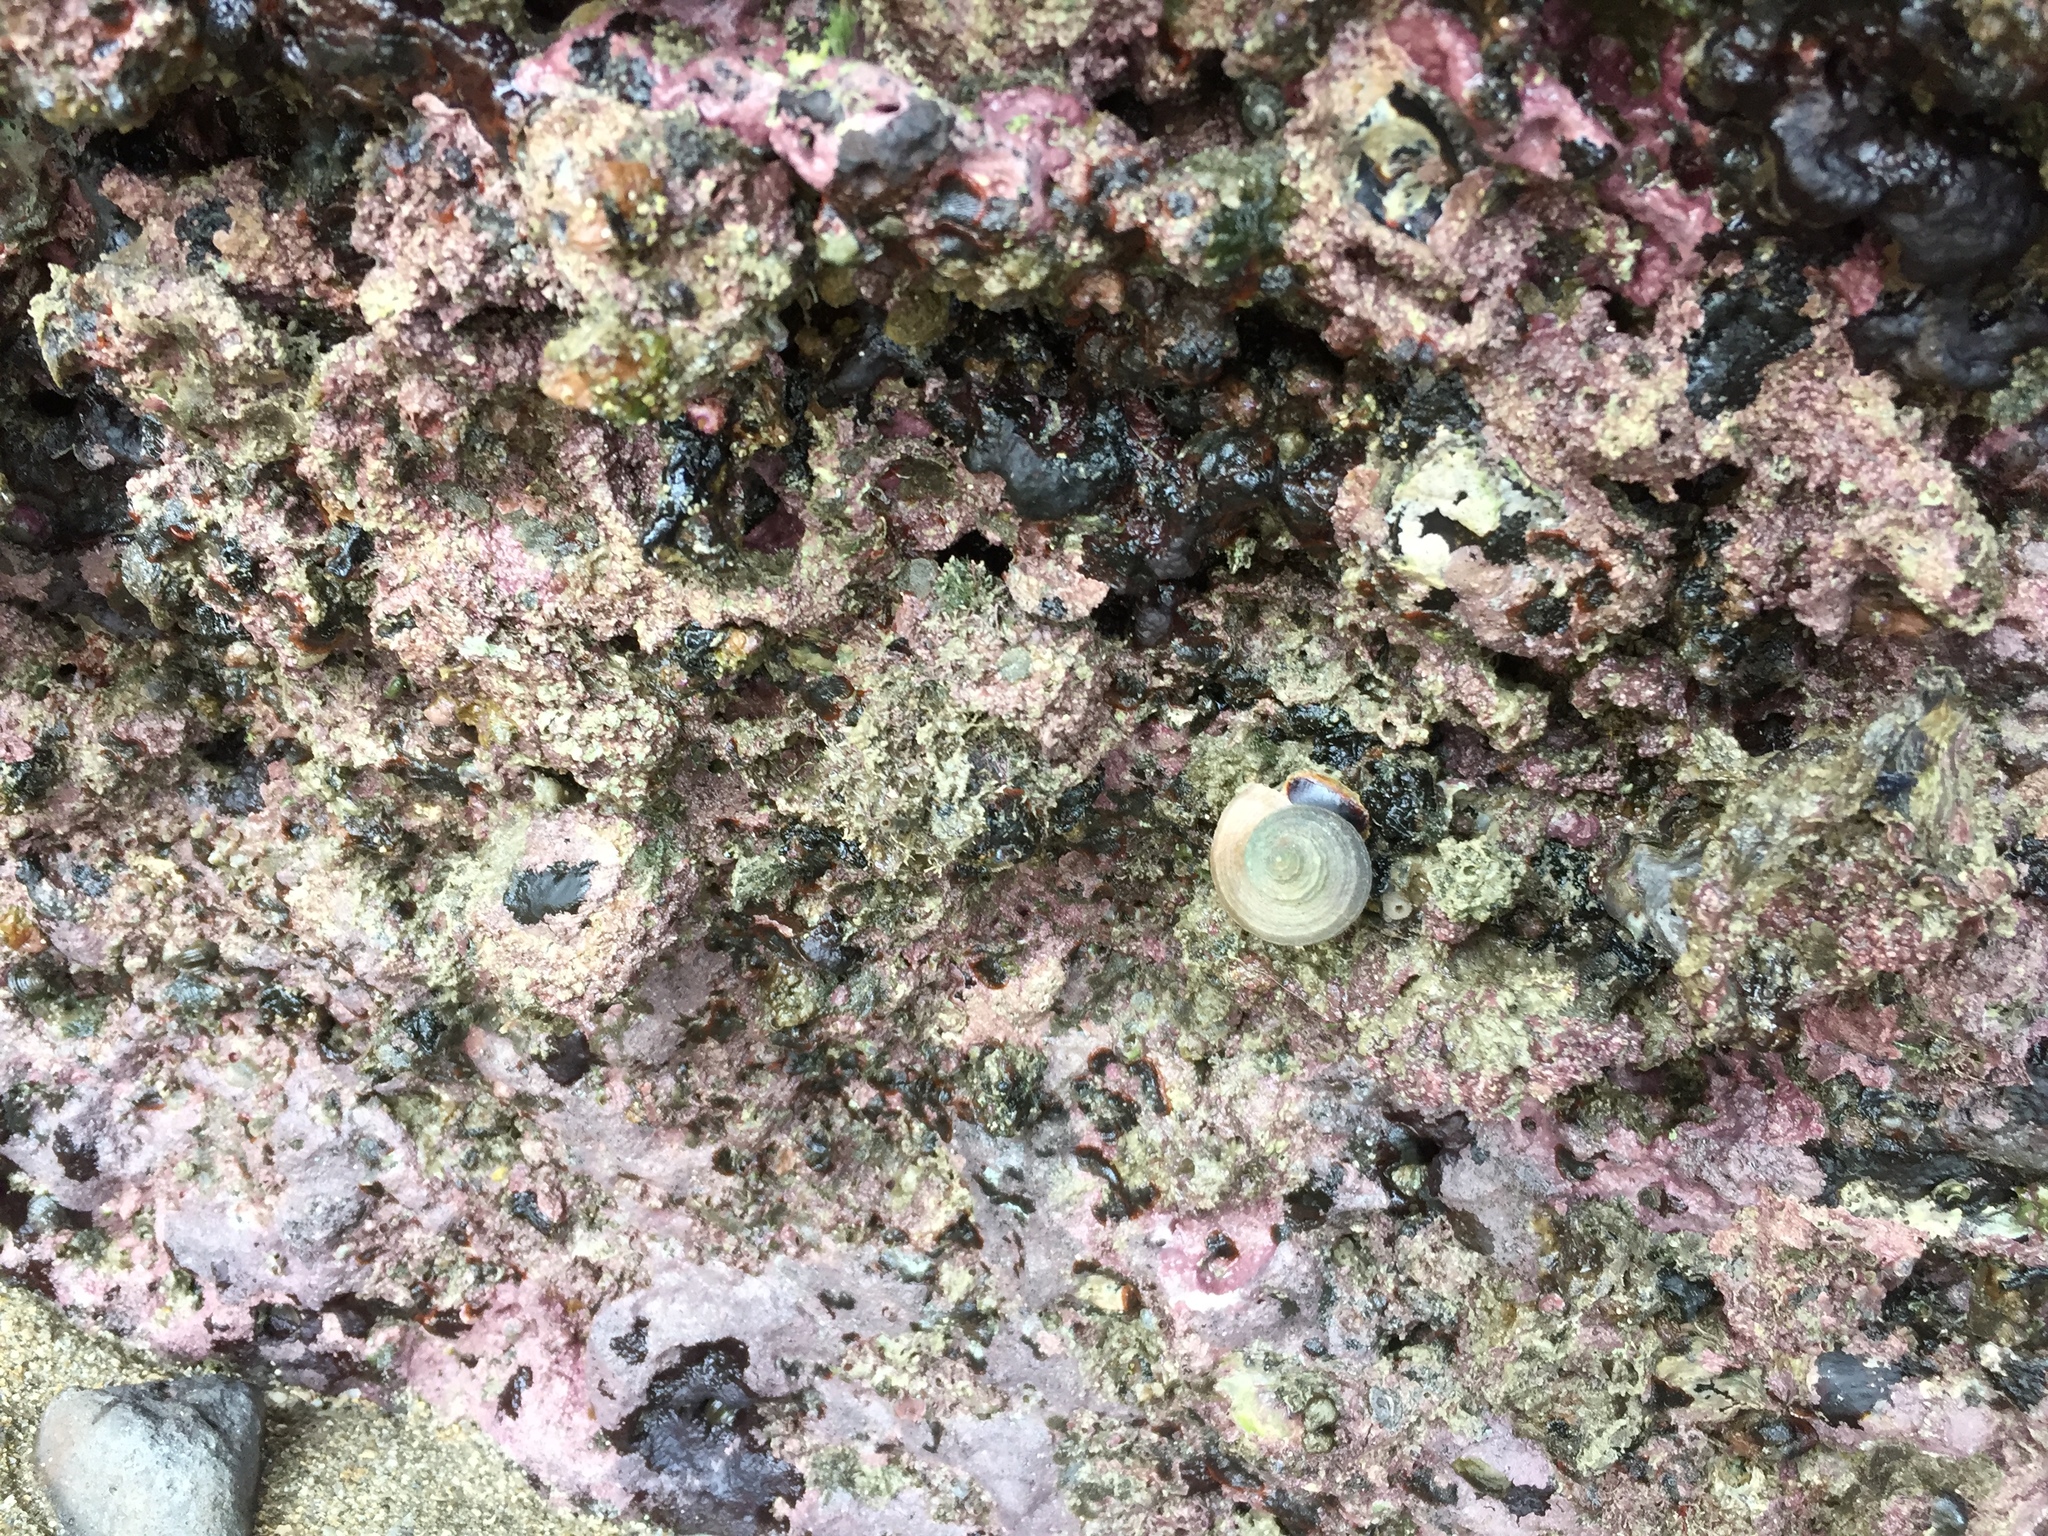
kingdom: Animalia
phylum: Mollusca
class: Gastropoda
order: Neogastropoda
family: Muricidae
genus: Dicathais
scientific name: Dicathais orbita
